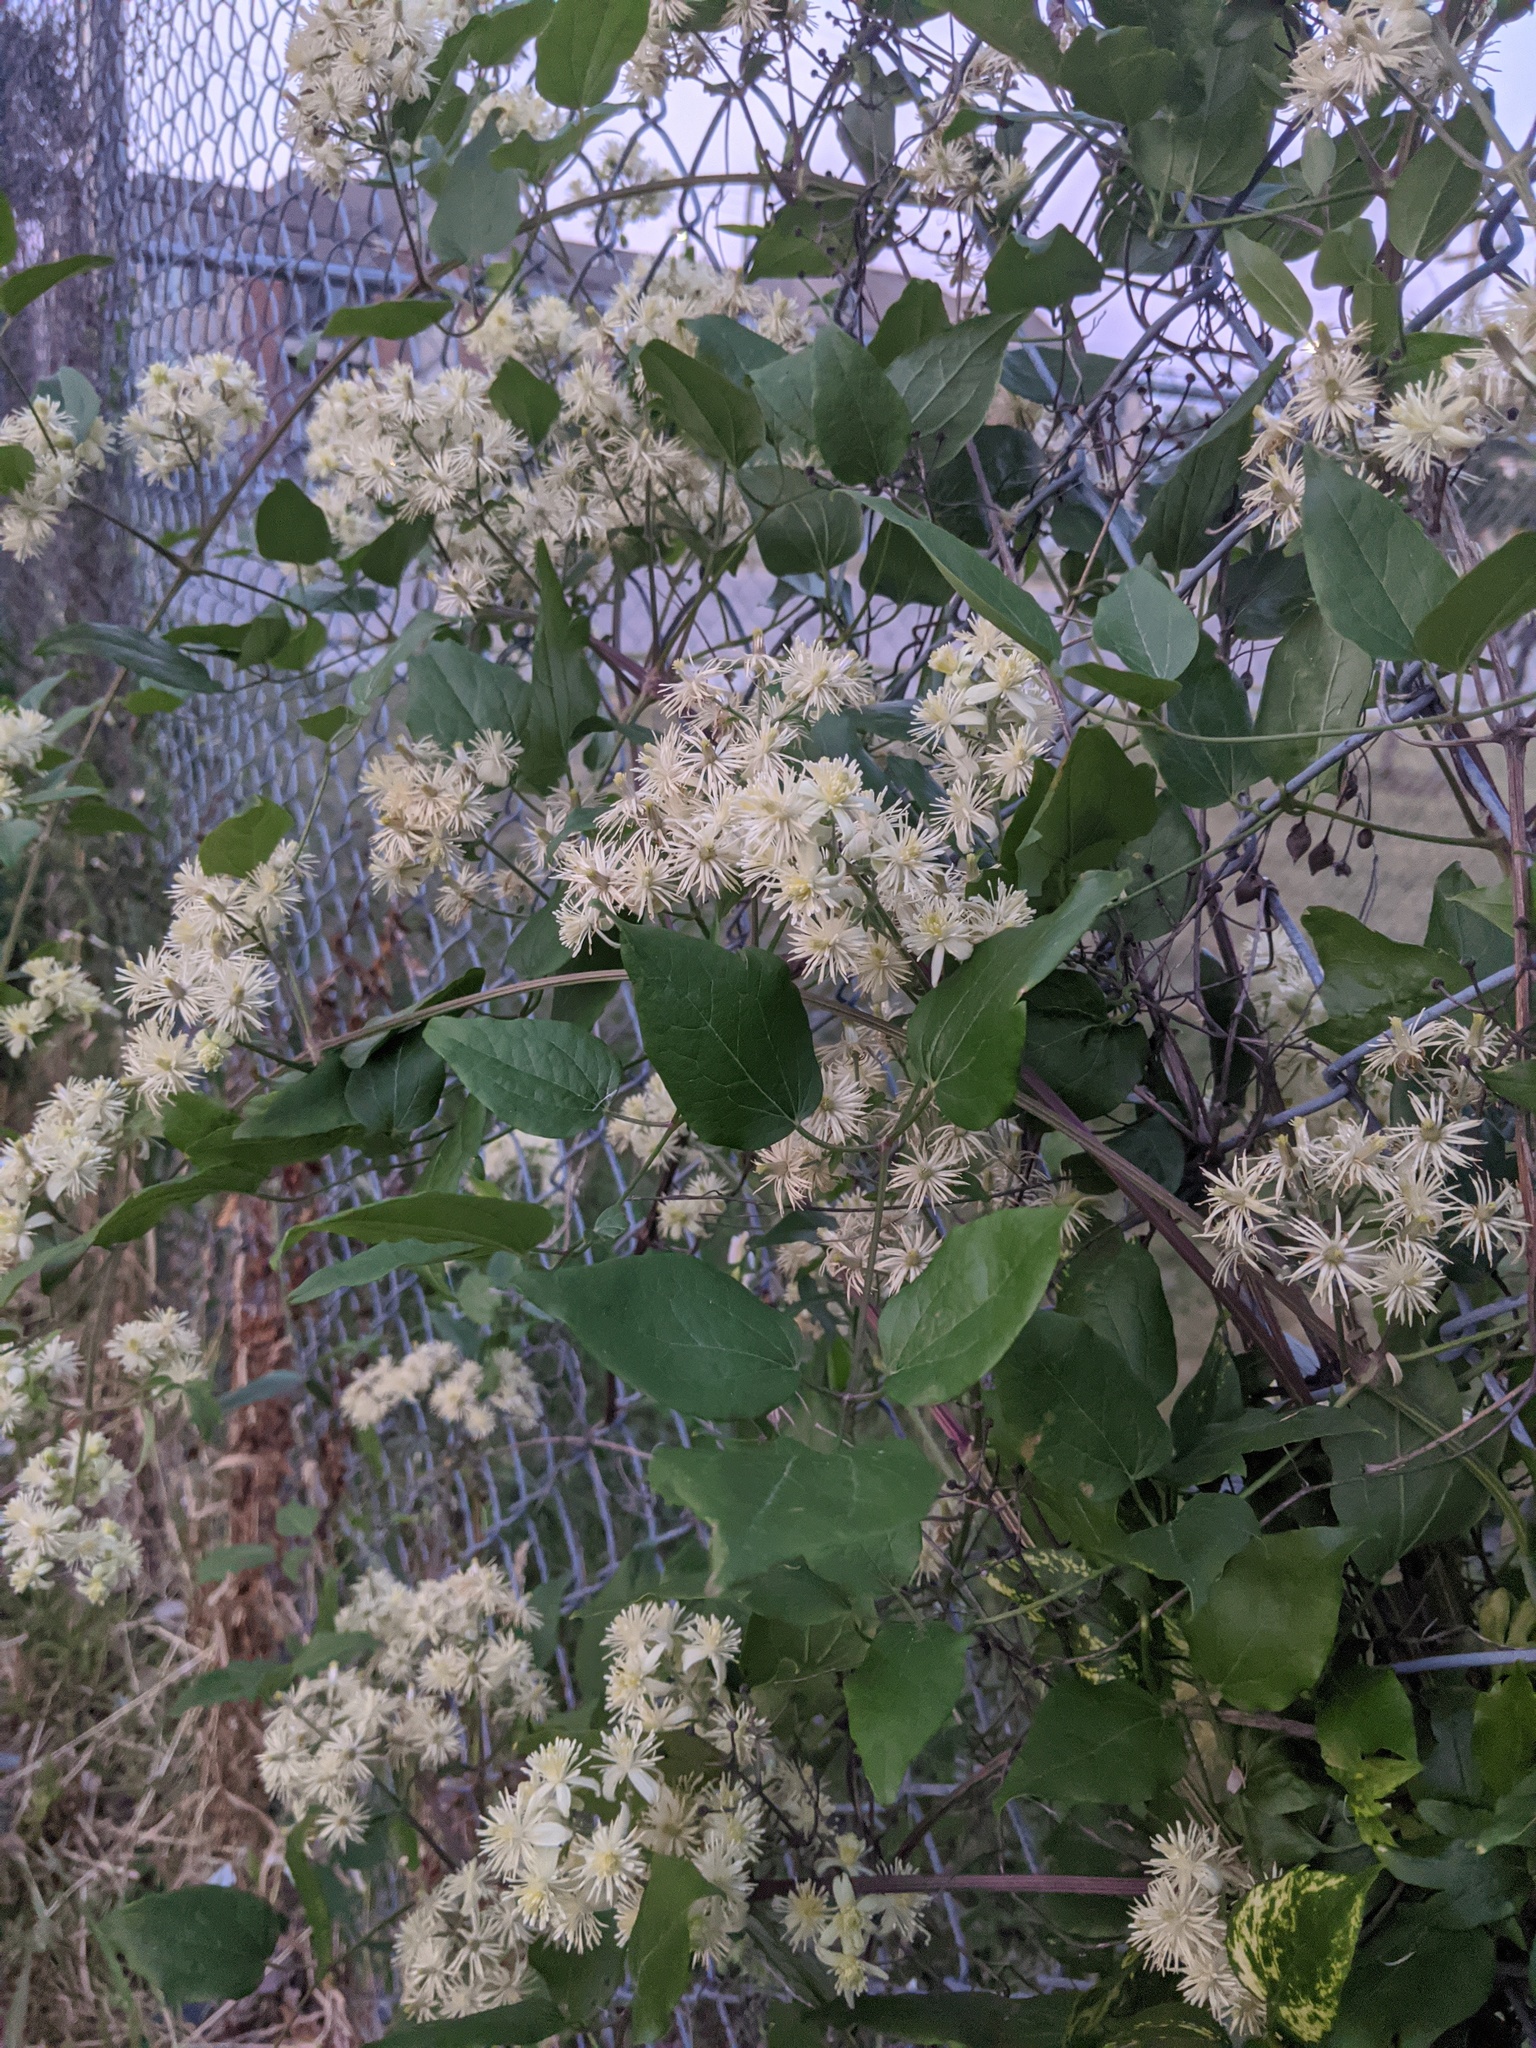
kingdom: Plantae
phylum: Tracheophyta
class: Magnoliopsida
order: Ranunculales
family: Ranunculaceae
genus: Clematis
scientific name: Clematis terniflora
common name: Sweet autumn clematis
